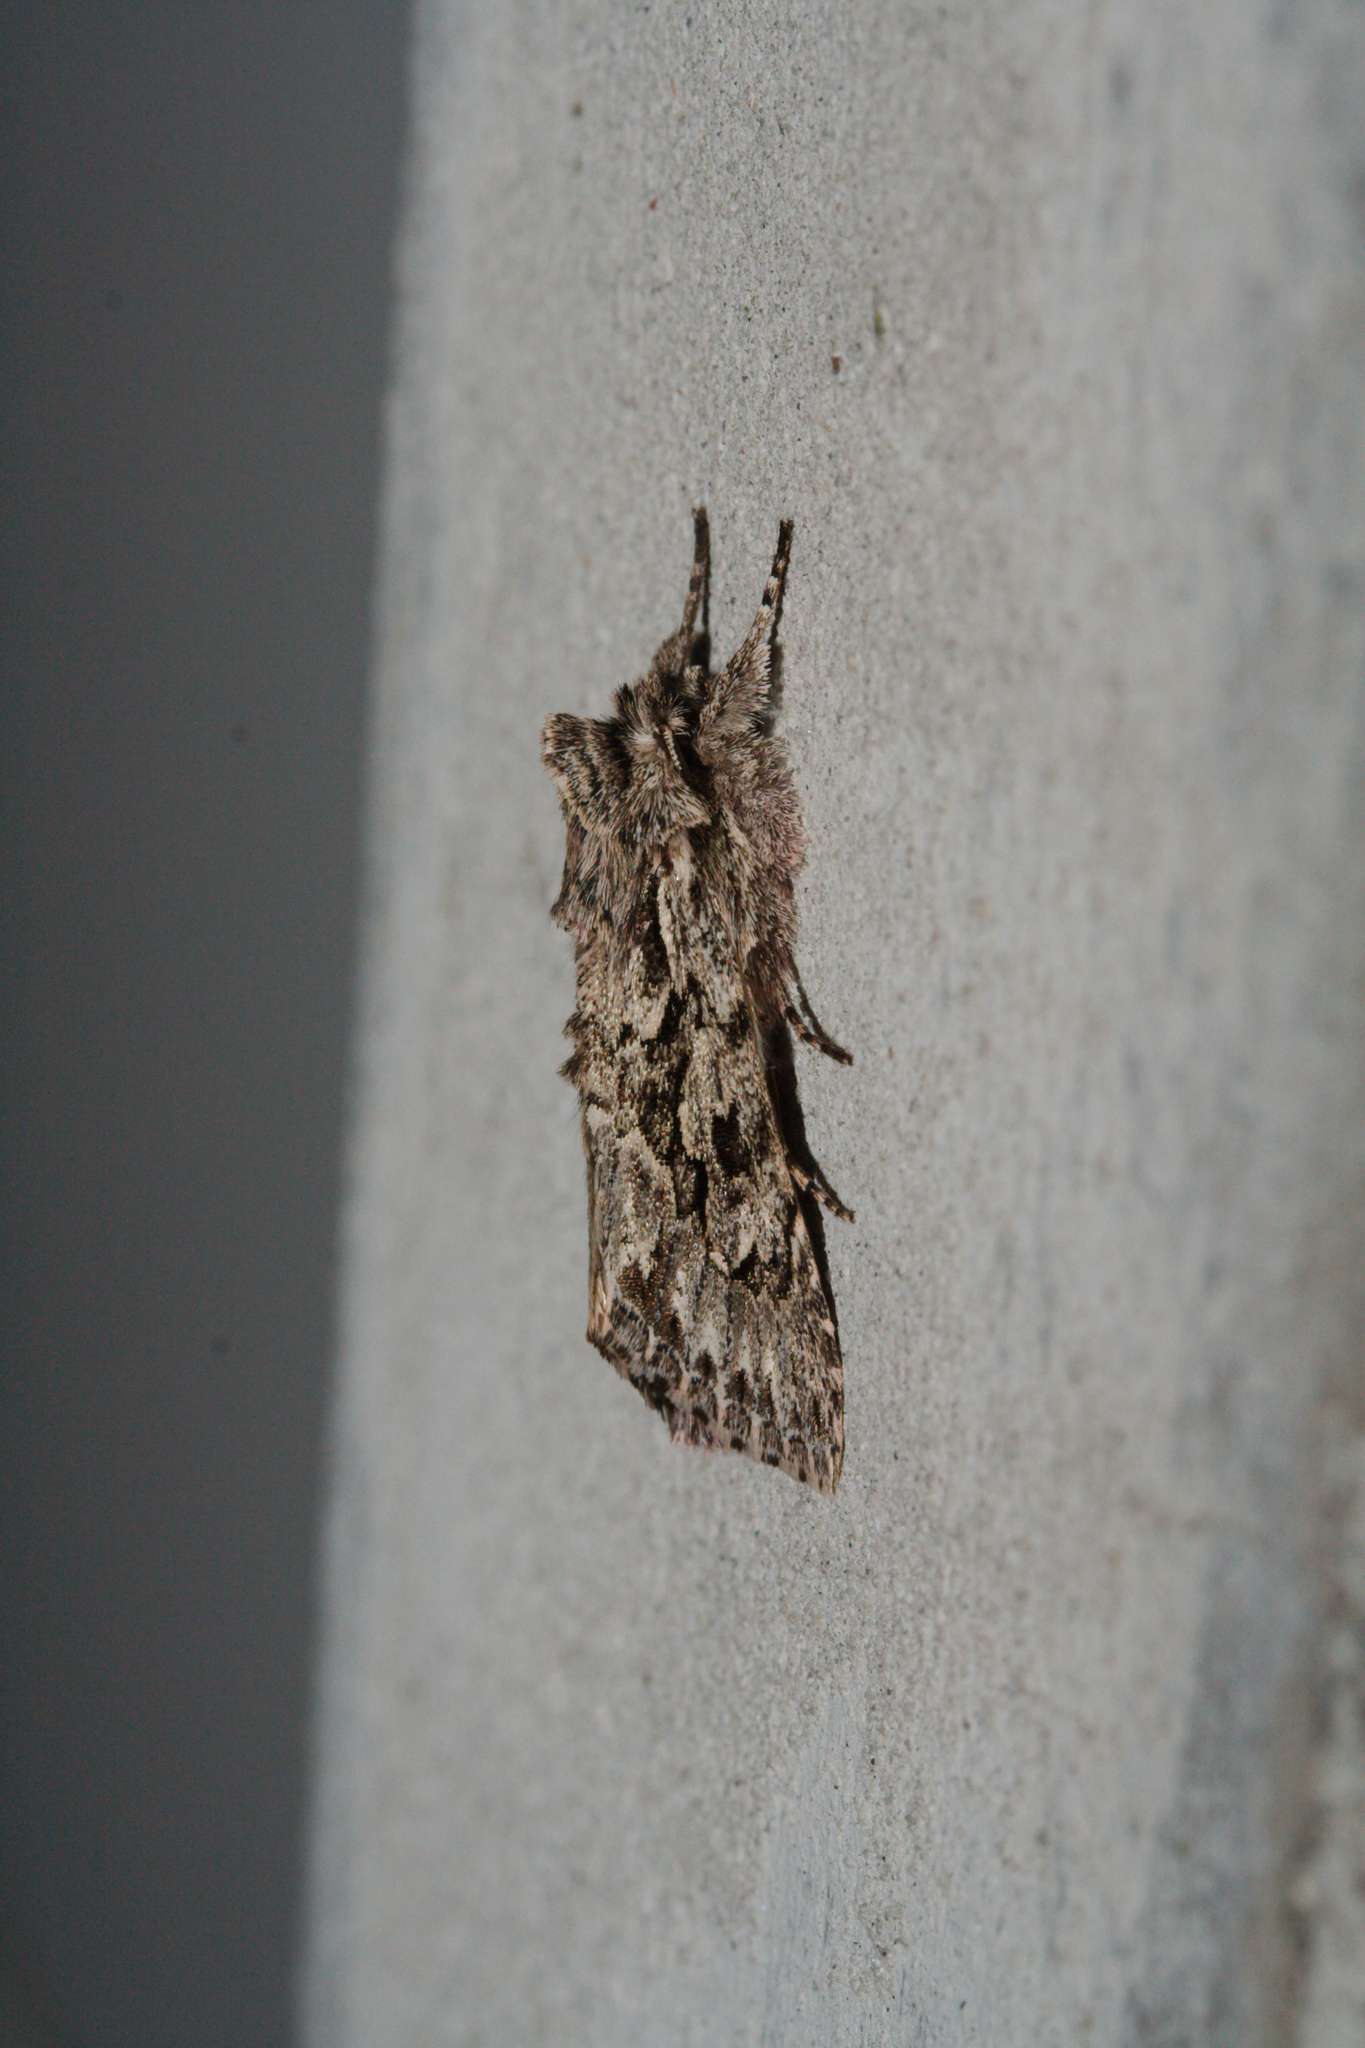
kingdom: Animalia
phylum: Arthropoda
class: Insecta
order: Lepidoptera
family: Noctuidae
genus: Xylocampa
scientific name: Xylocampa areola
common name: Early grey
